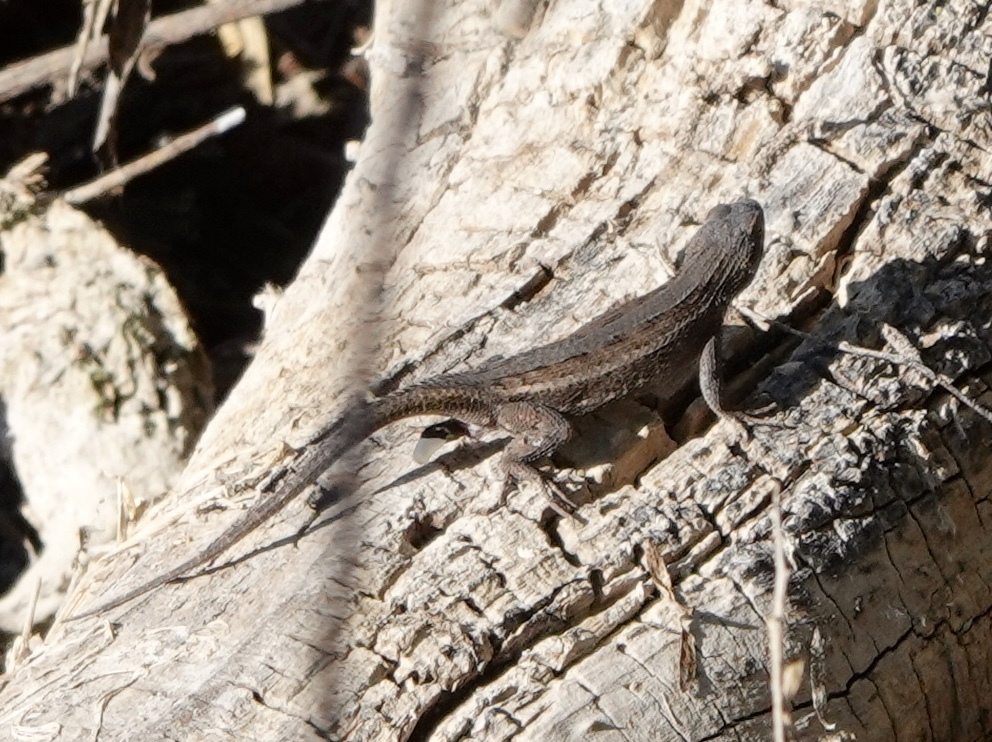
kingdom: Animalia
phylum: Chordata
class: Squamata
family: Phrynosomatidae
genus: Sceloporus
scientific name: Sceloporus cowlesi
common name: White sands prairie lizard
